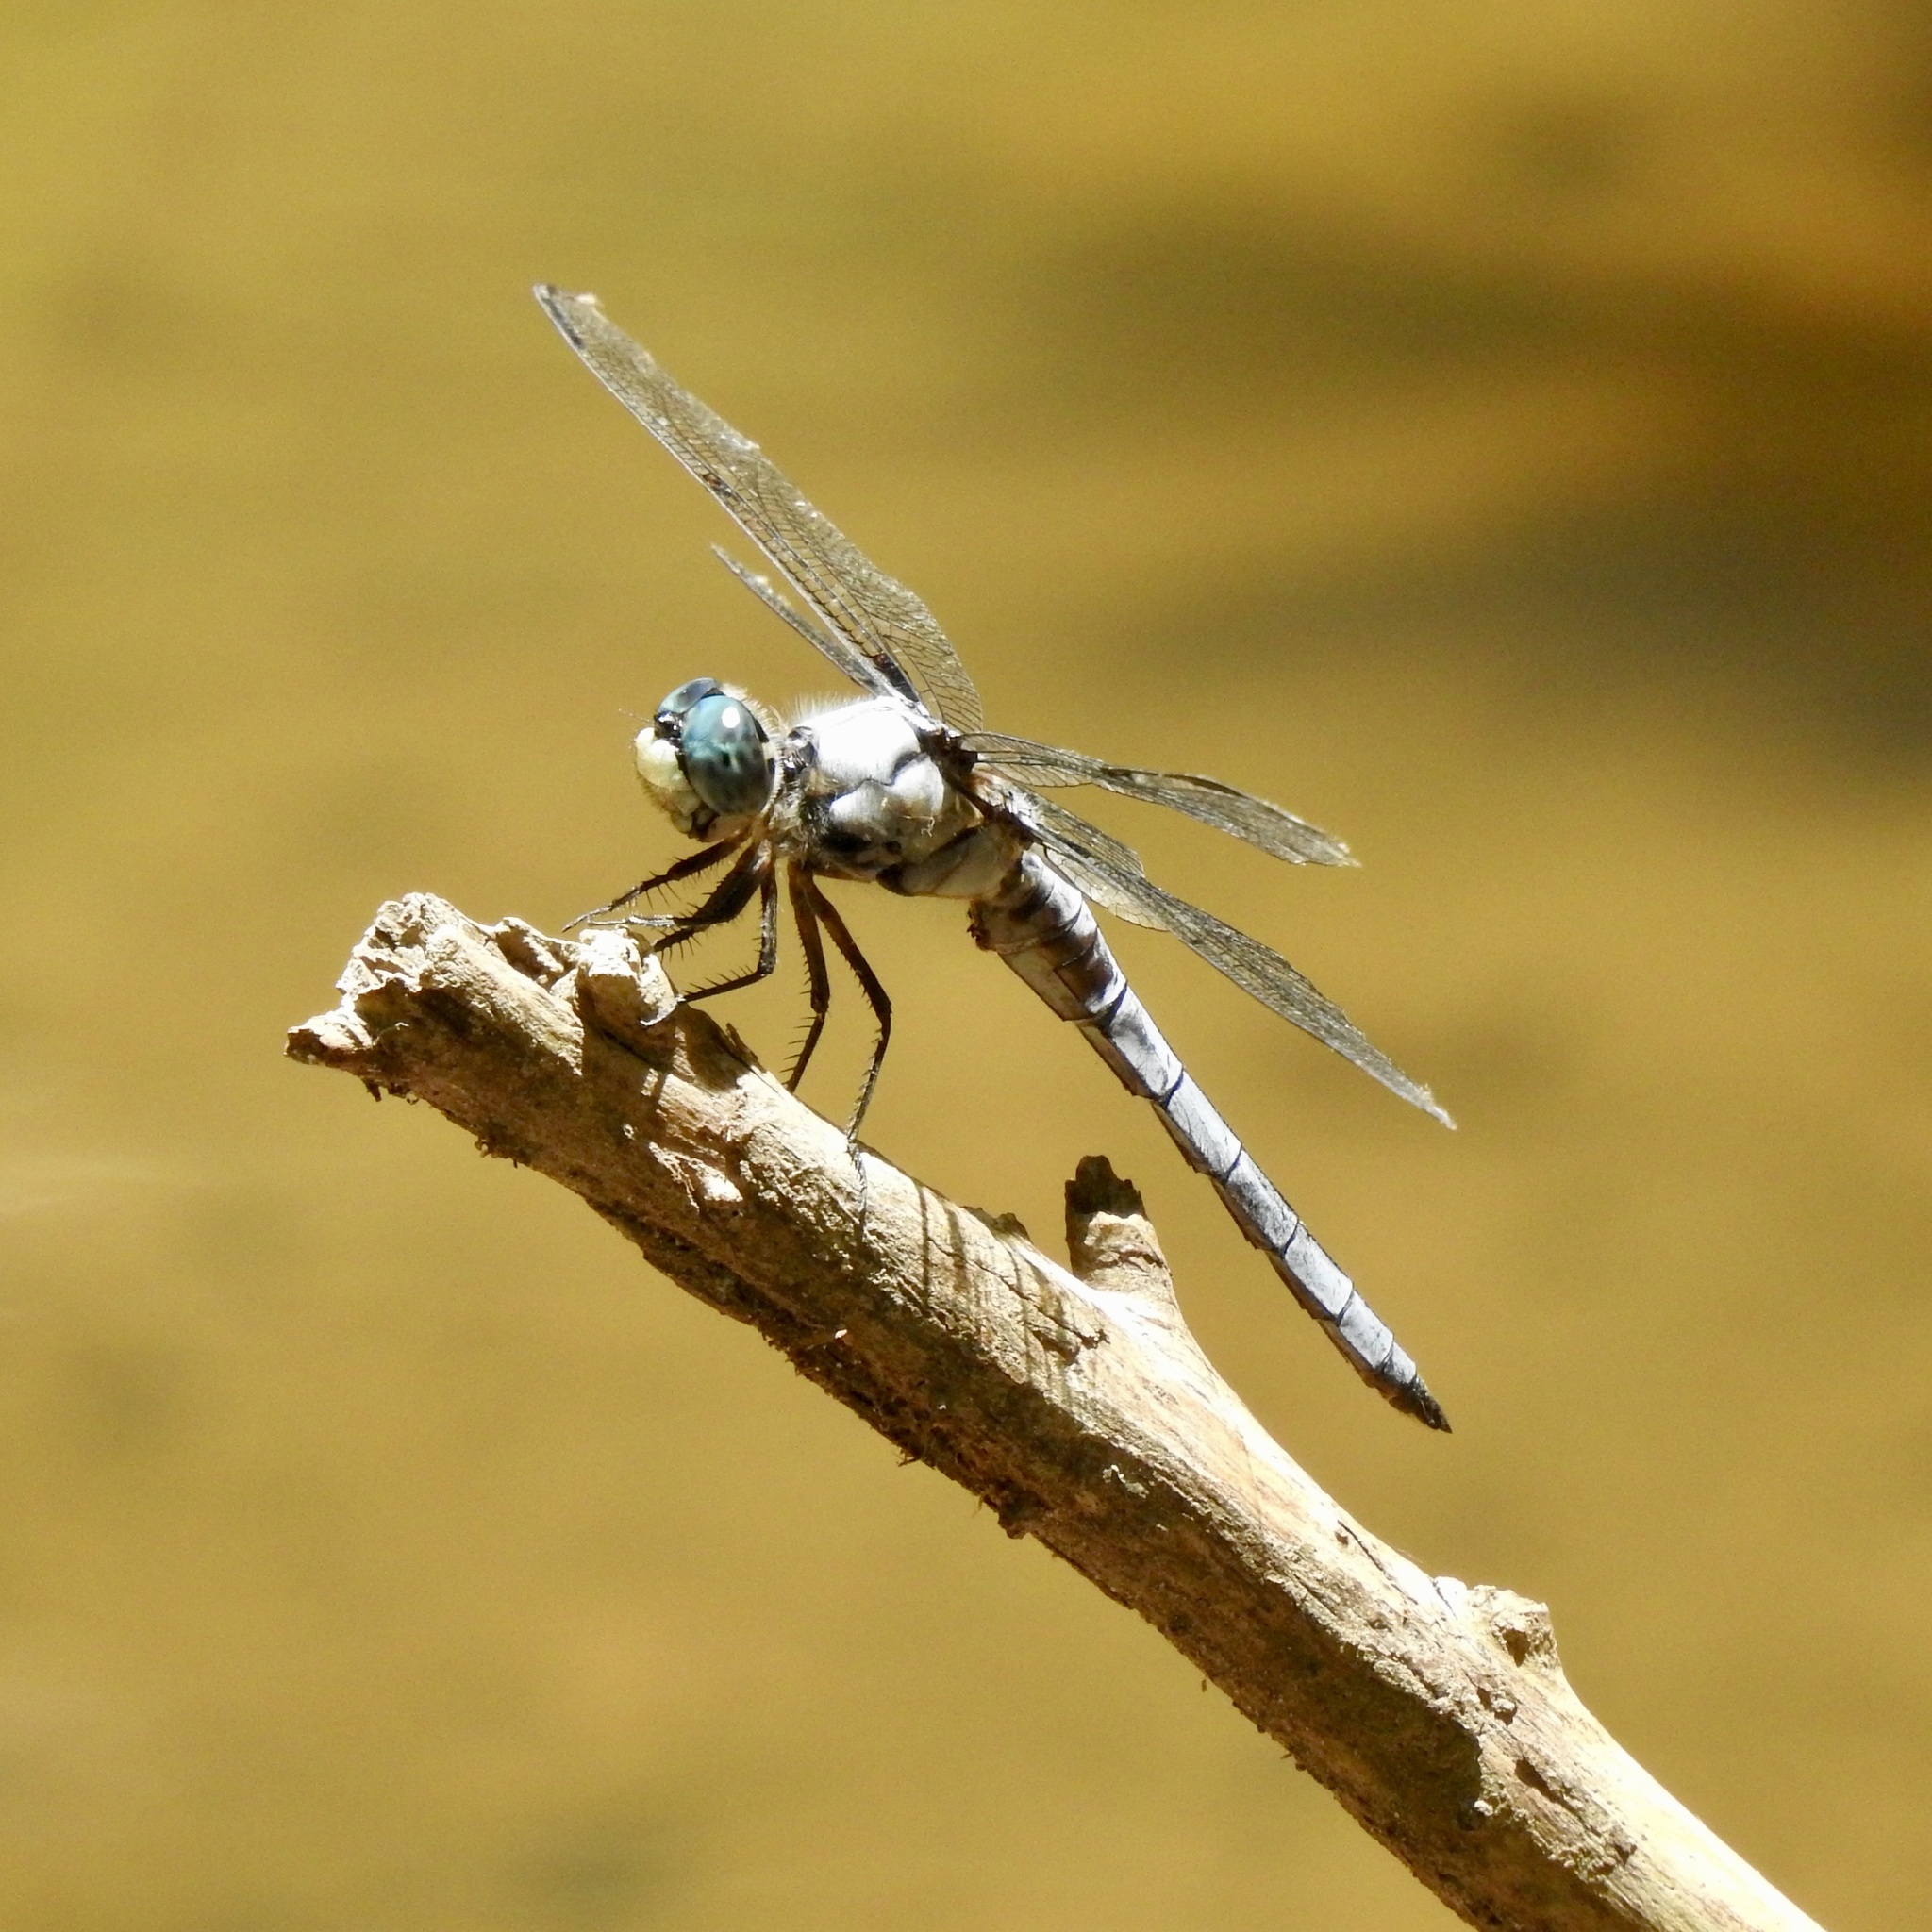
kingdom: Animalia
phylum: Arthropoda
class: Insecta
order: Odonata
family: Libellulidae
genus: Libellula
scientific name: Libellula vibrans
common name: Great blue skimmer
